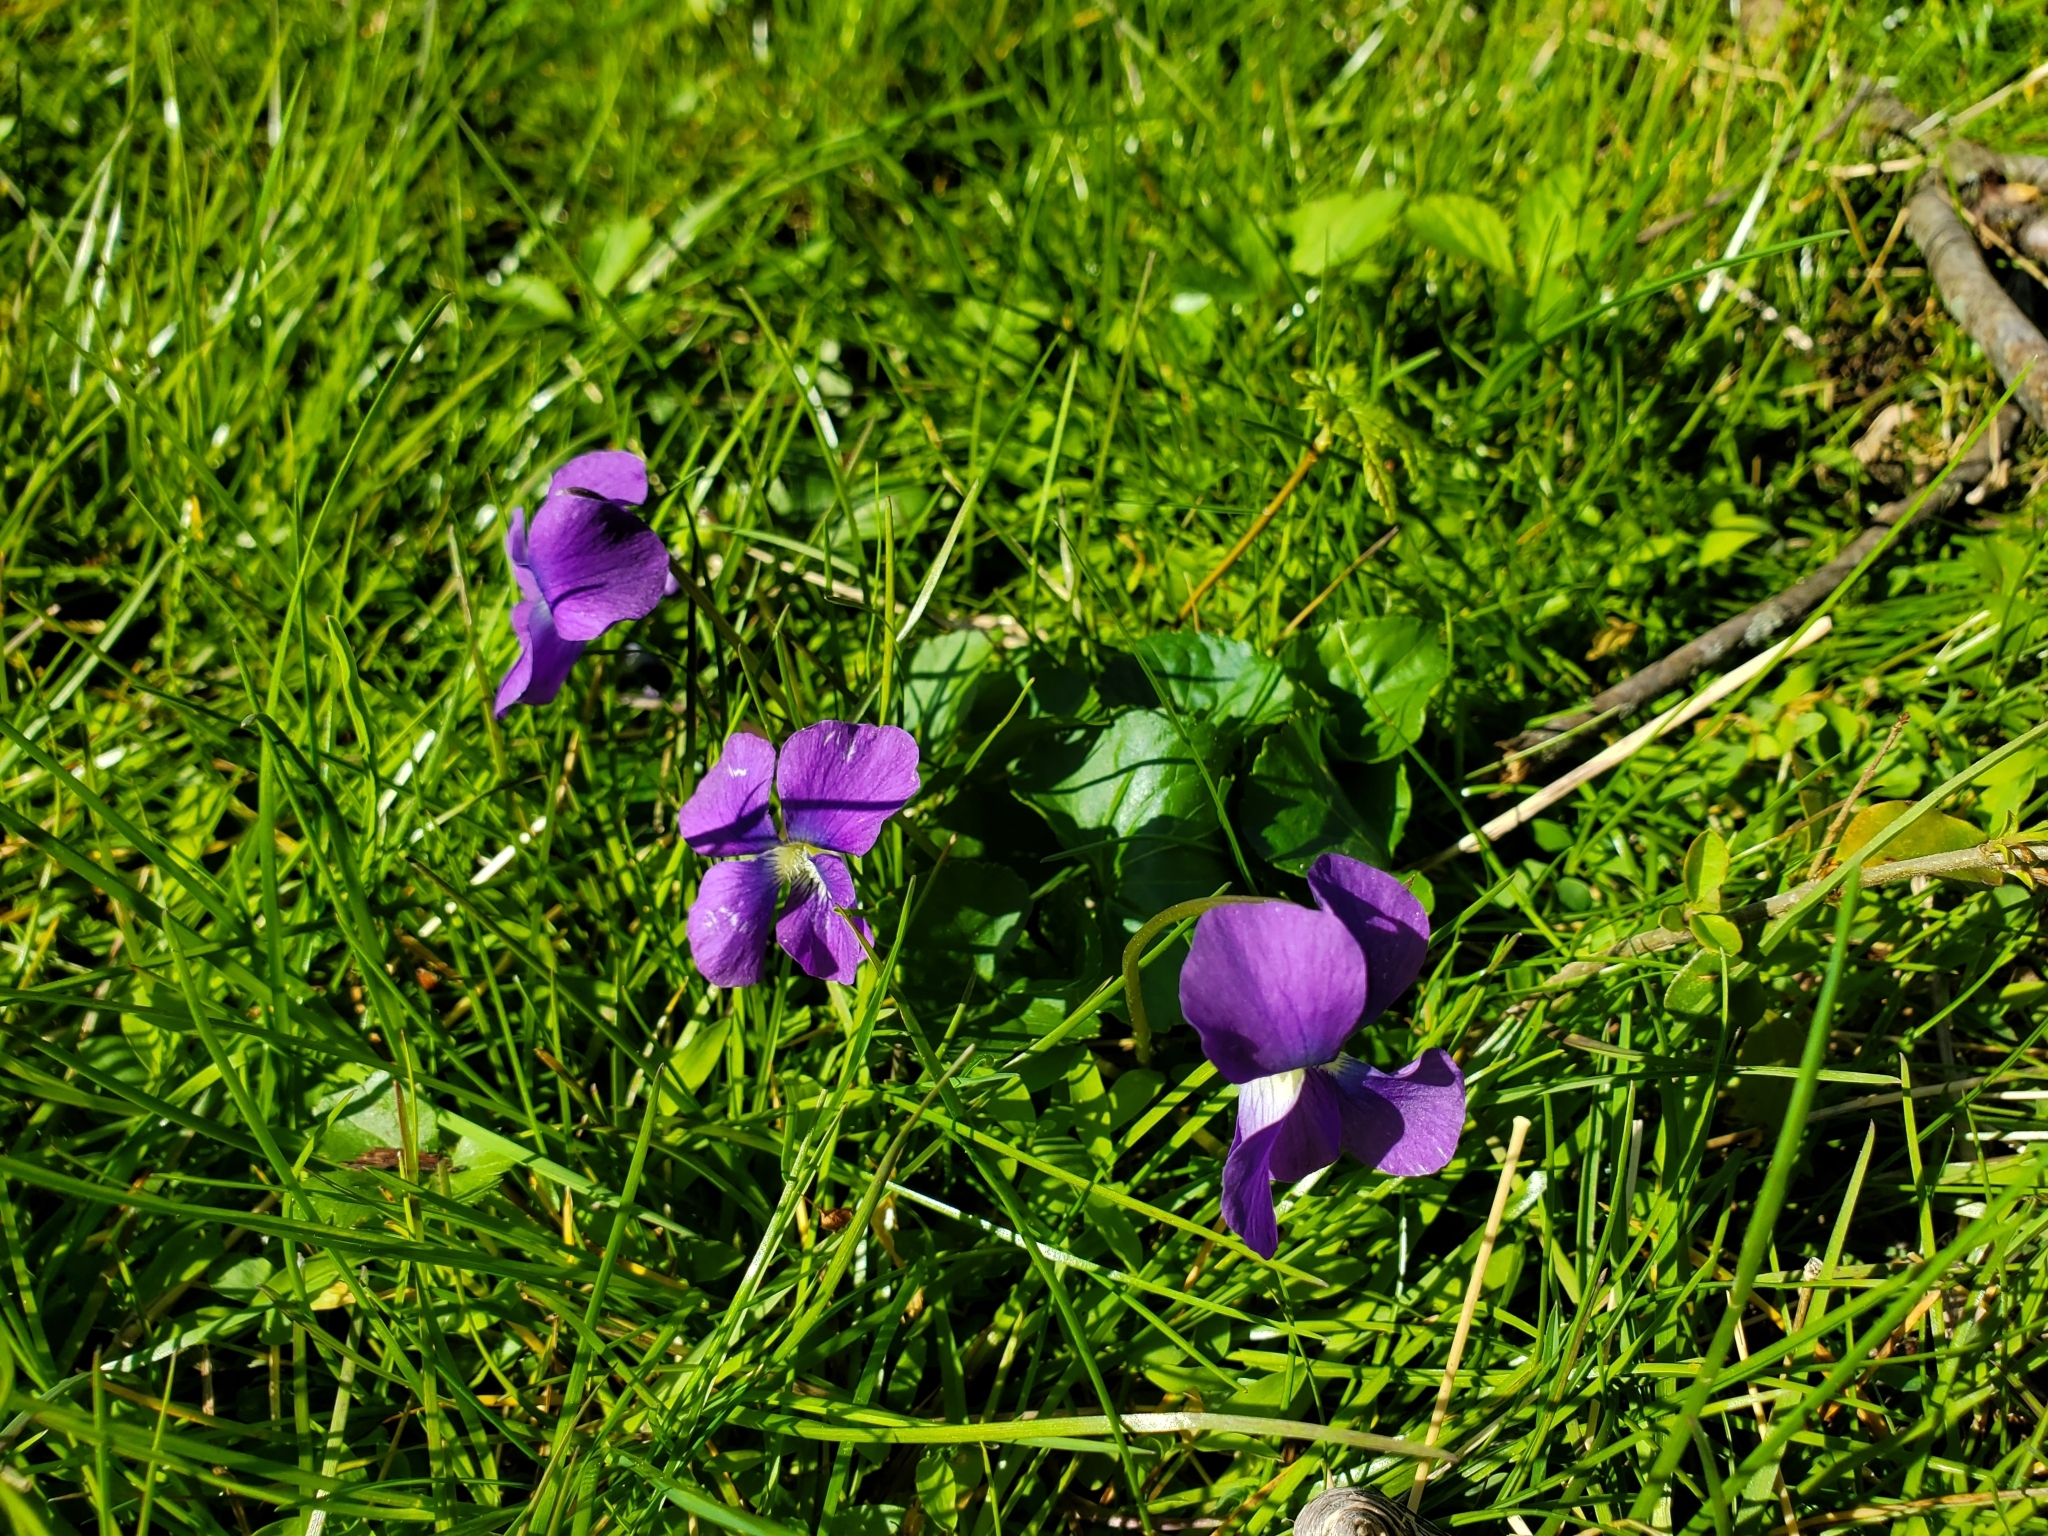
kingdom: Plantae
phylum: Tracheophyta
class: Magnoliopsida
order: Malpighiales
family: Violaceae
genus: Viola
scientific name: Viola sororia
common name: Dooryard violet
